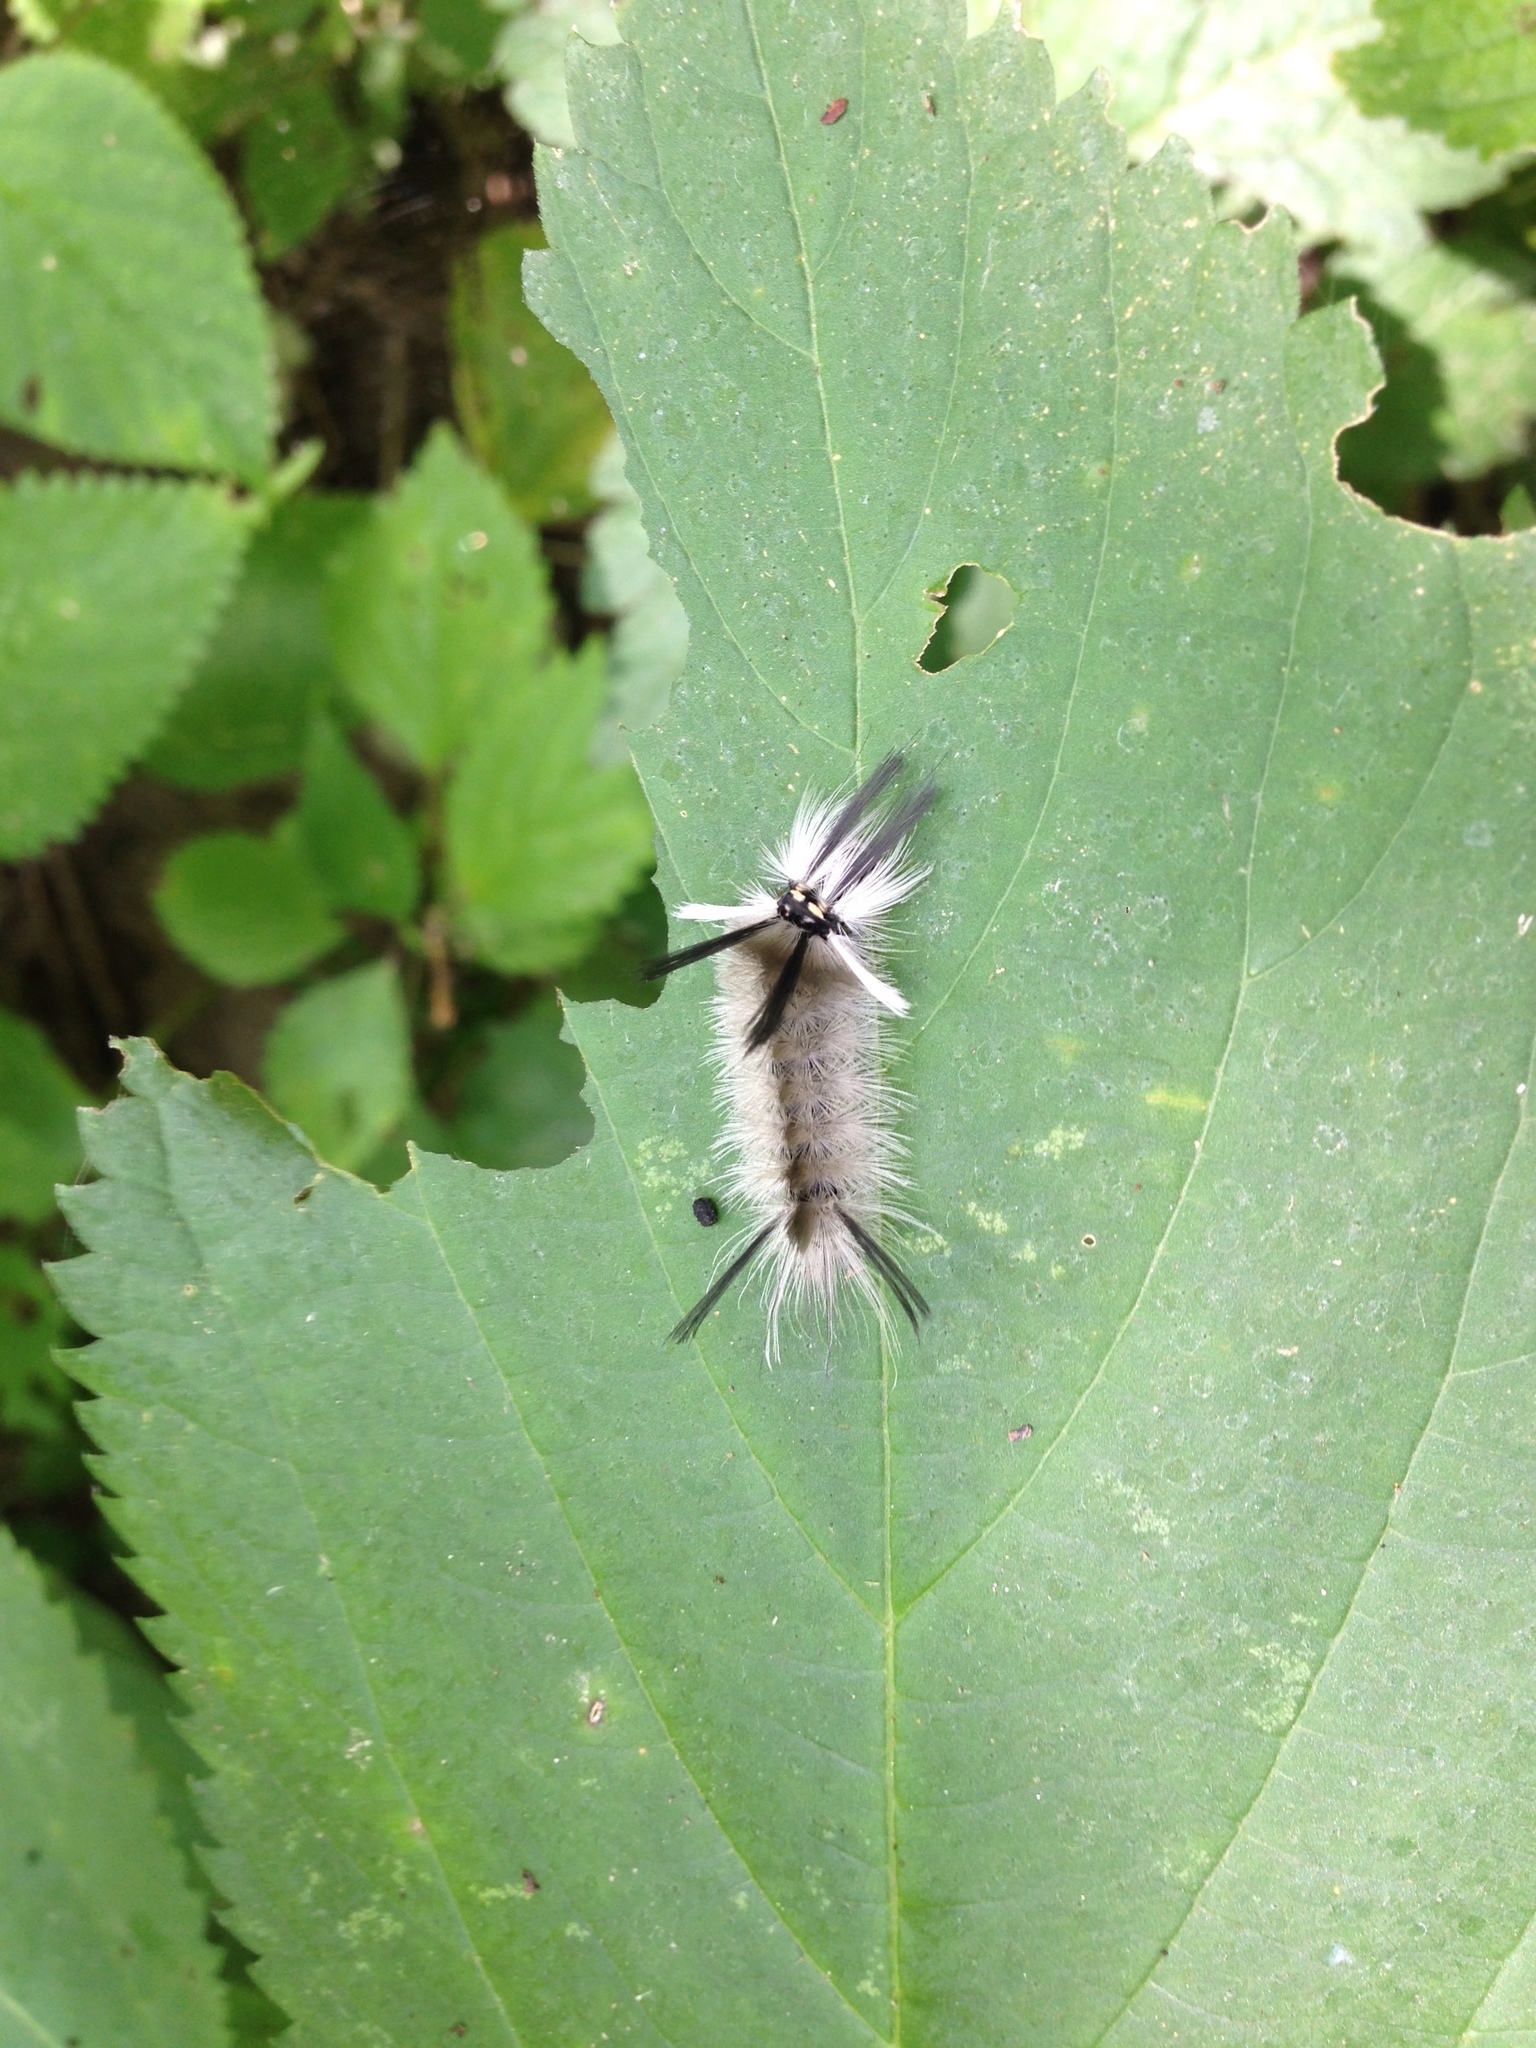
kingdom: Animalia
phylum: Arthropoda
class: Insecta
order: Lepidoptera
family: Erebidae
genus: Halysidota
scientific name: Halysidota tessellaris
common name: Banded tussock moth
